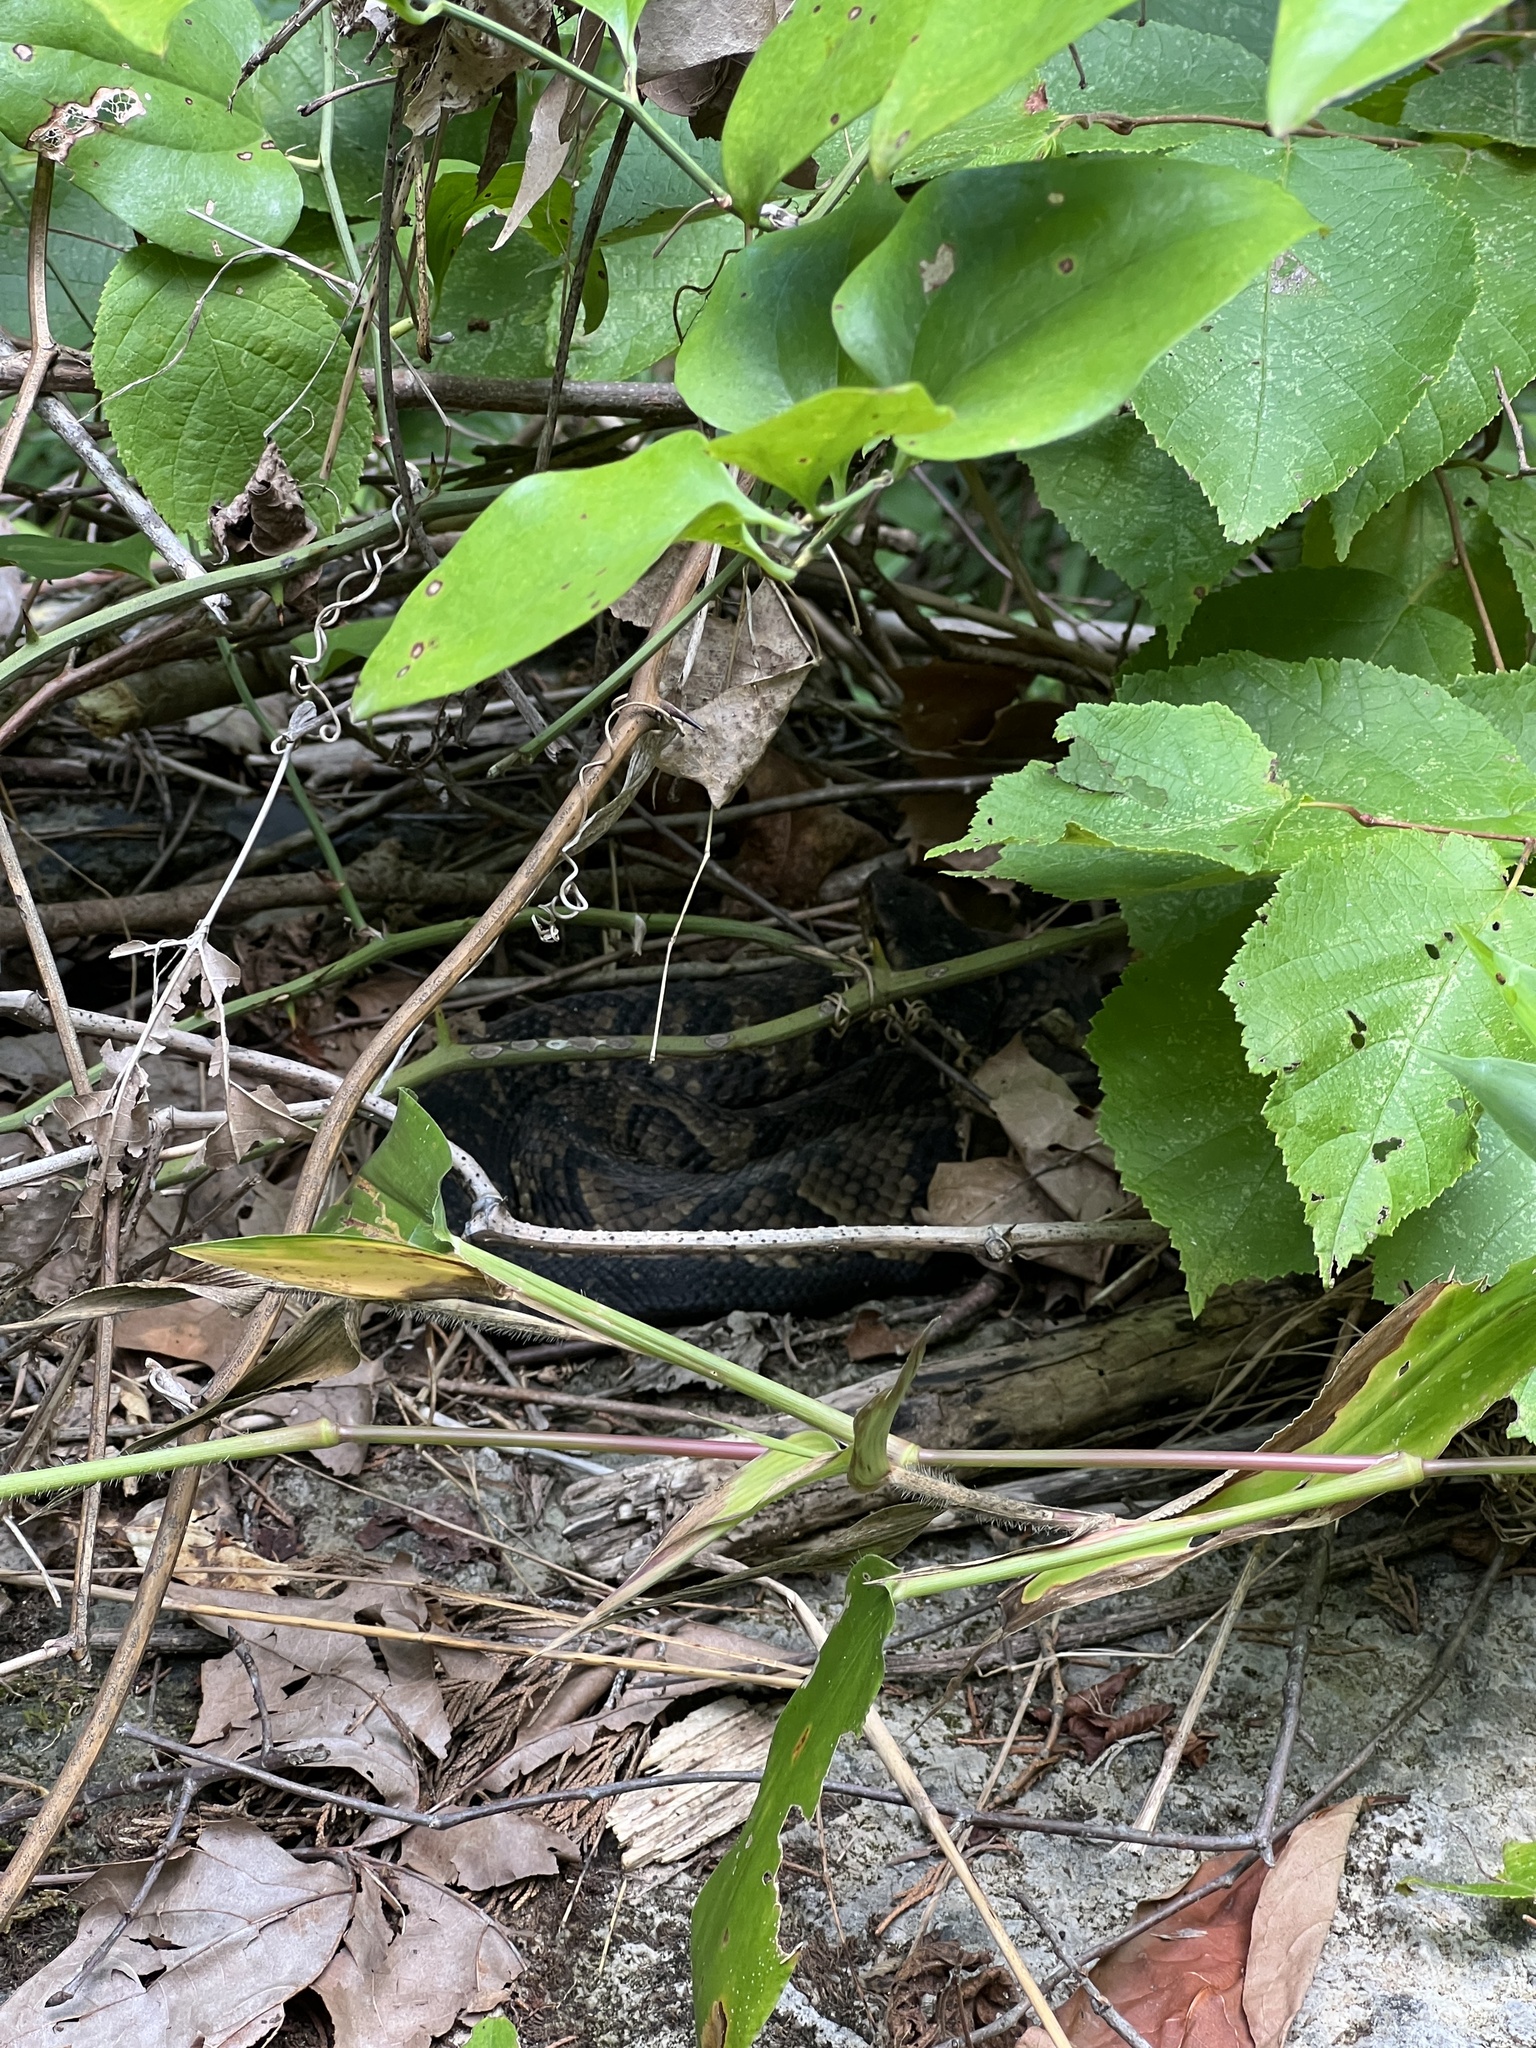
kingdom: Animalia
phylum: Chordata
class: Squamata
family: Viperidae
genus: Agkistrodon
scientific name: Agkistrodon piscivorus
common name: Cottonmouth
